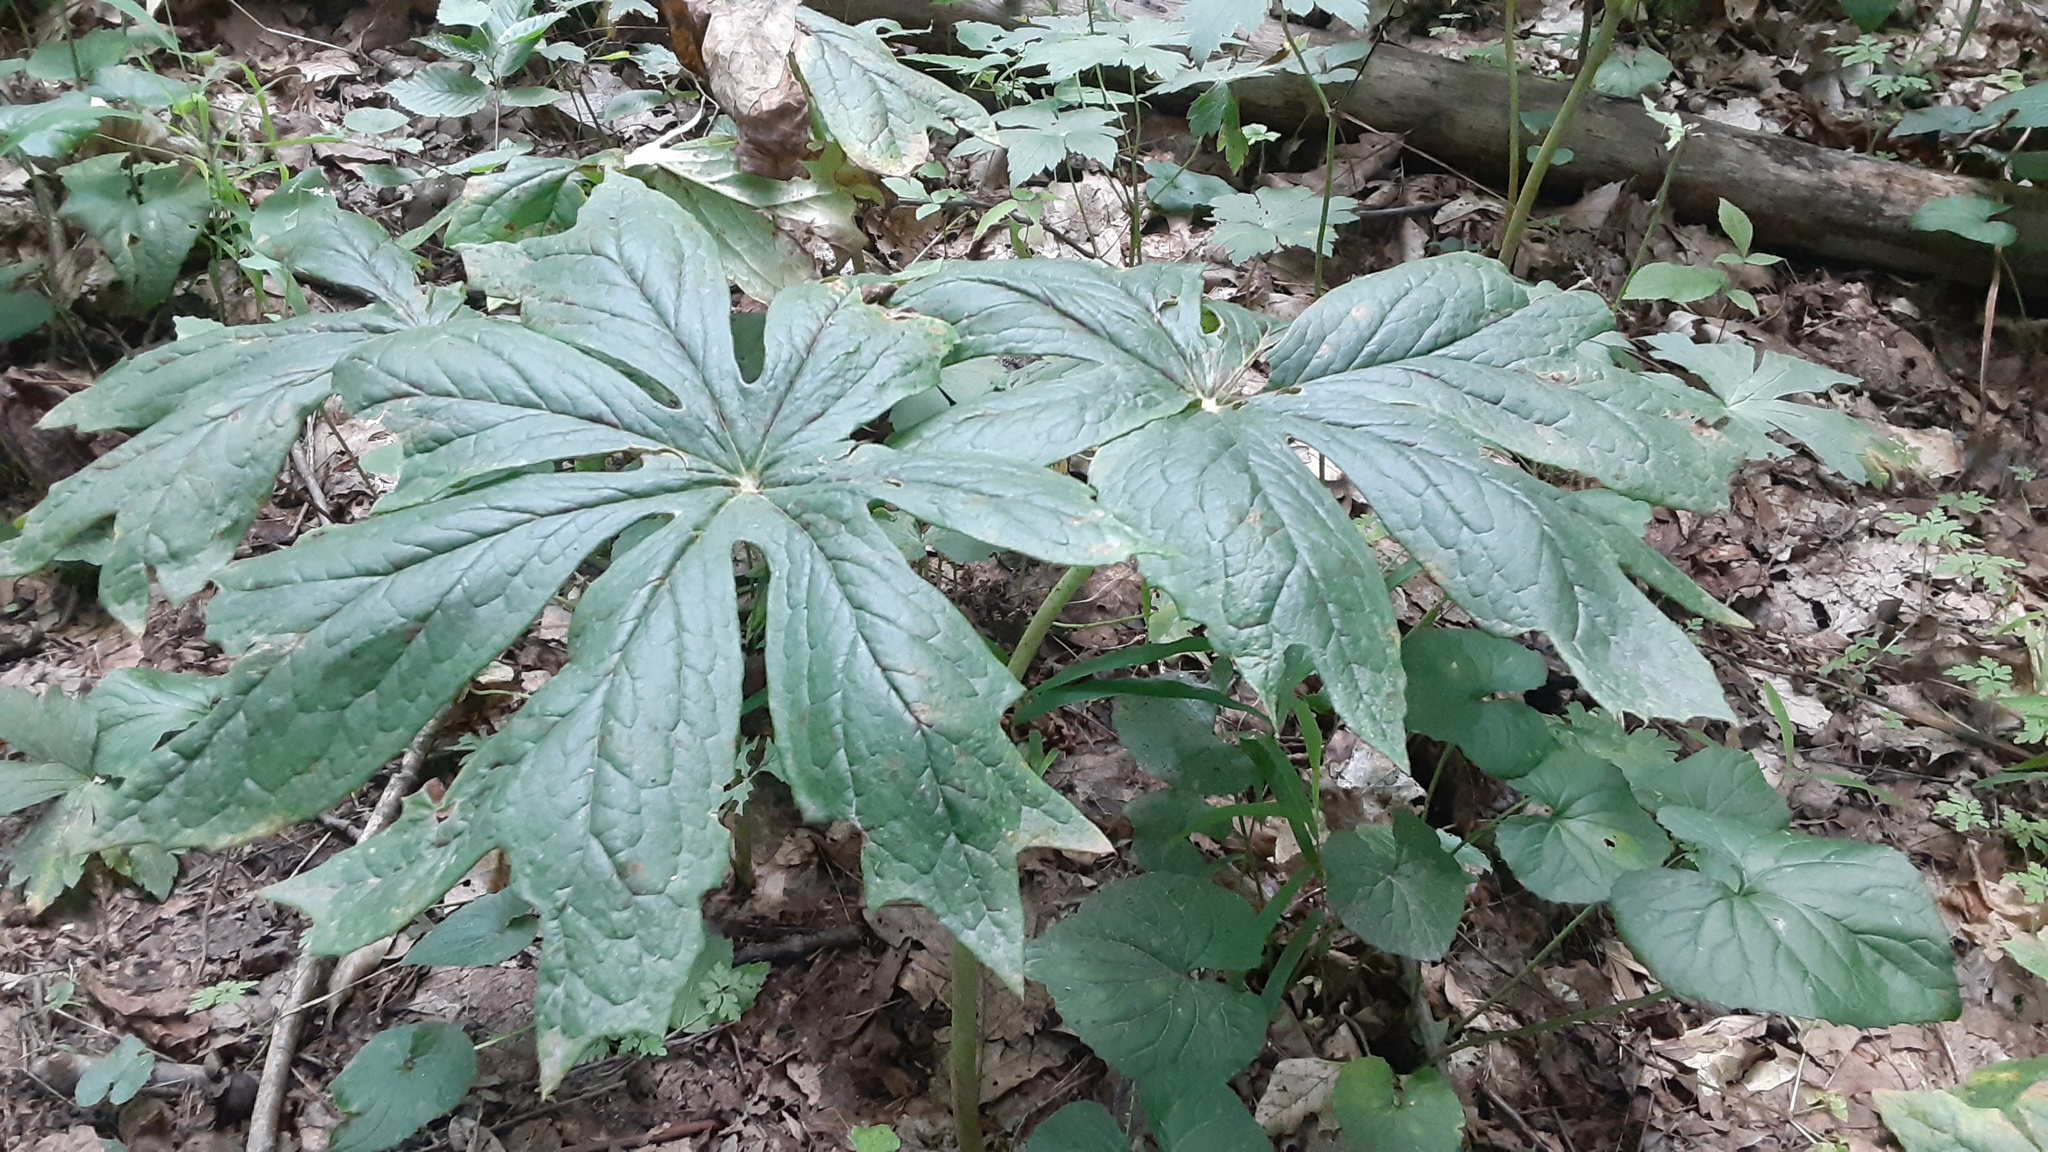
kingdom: Plantae
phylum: Tracheophyta
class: Magnoliopsida
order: Ranunculales
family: Berberidaceae
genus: Podophyllum
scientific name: Podophyllum peltatum
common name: Wild mandrake
